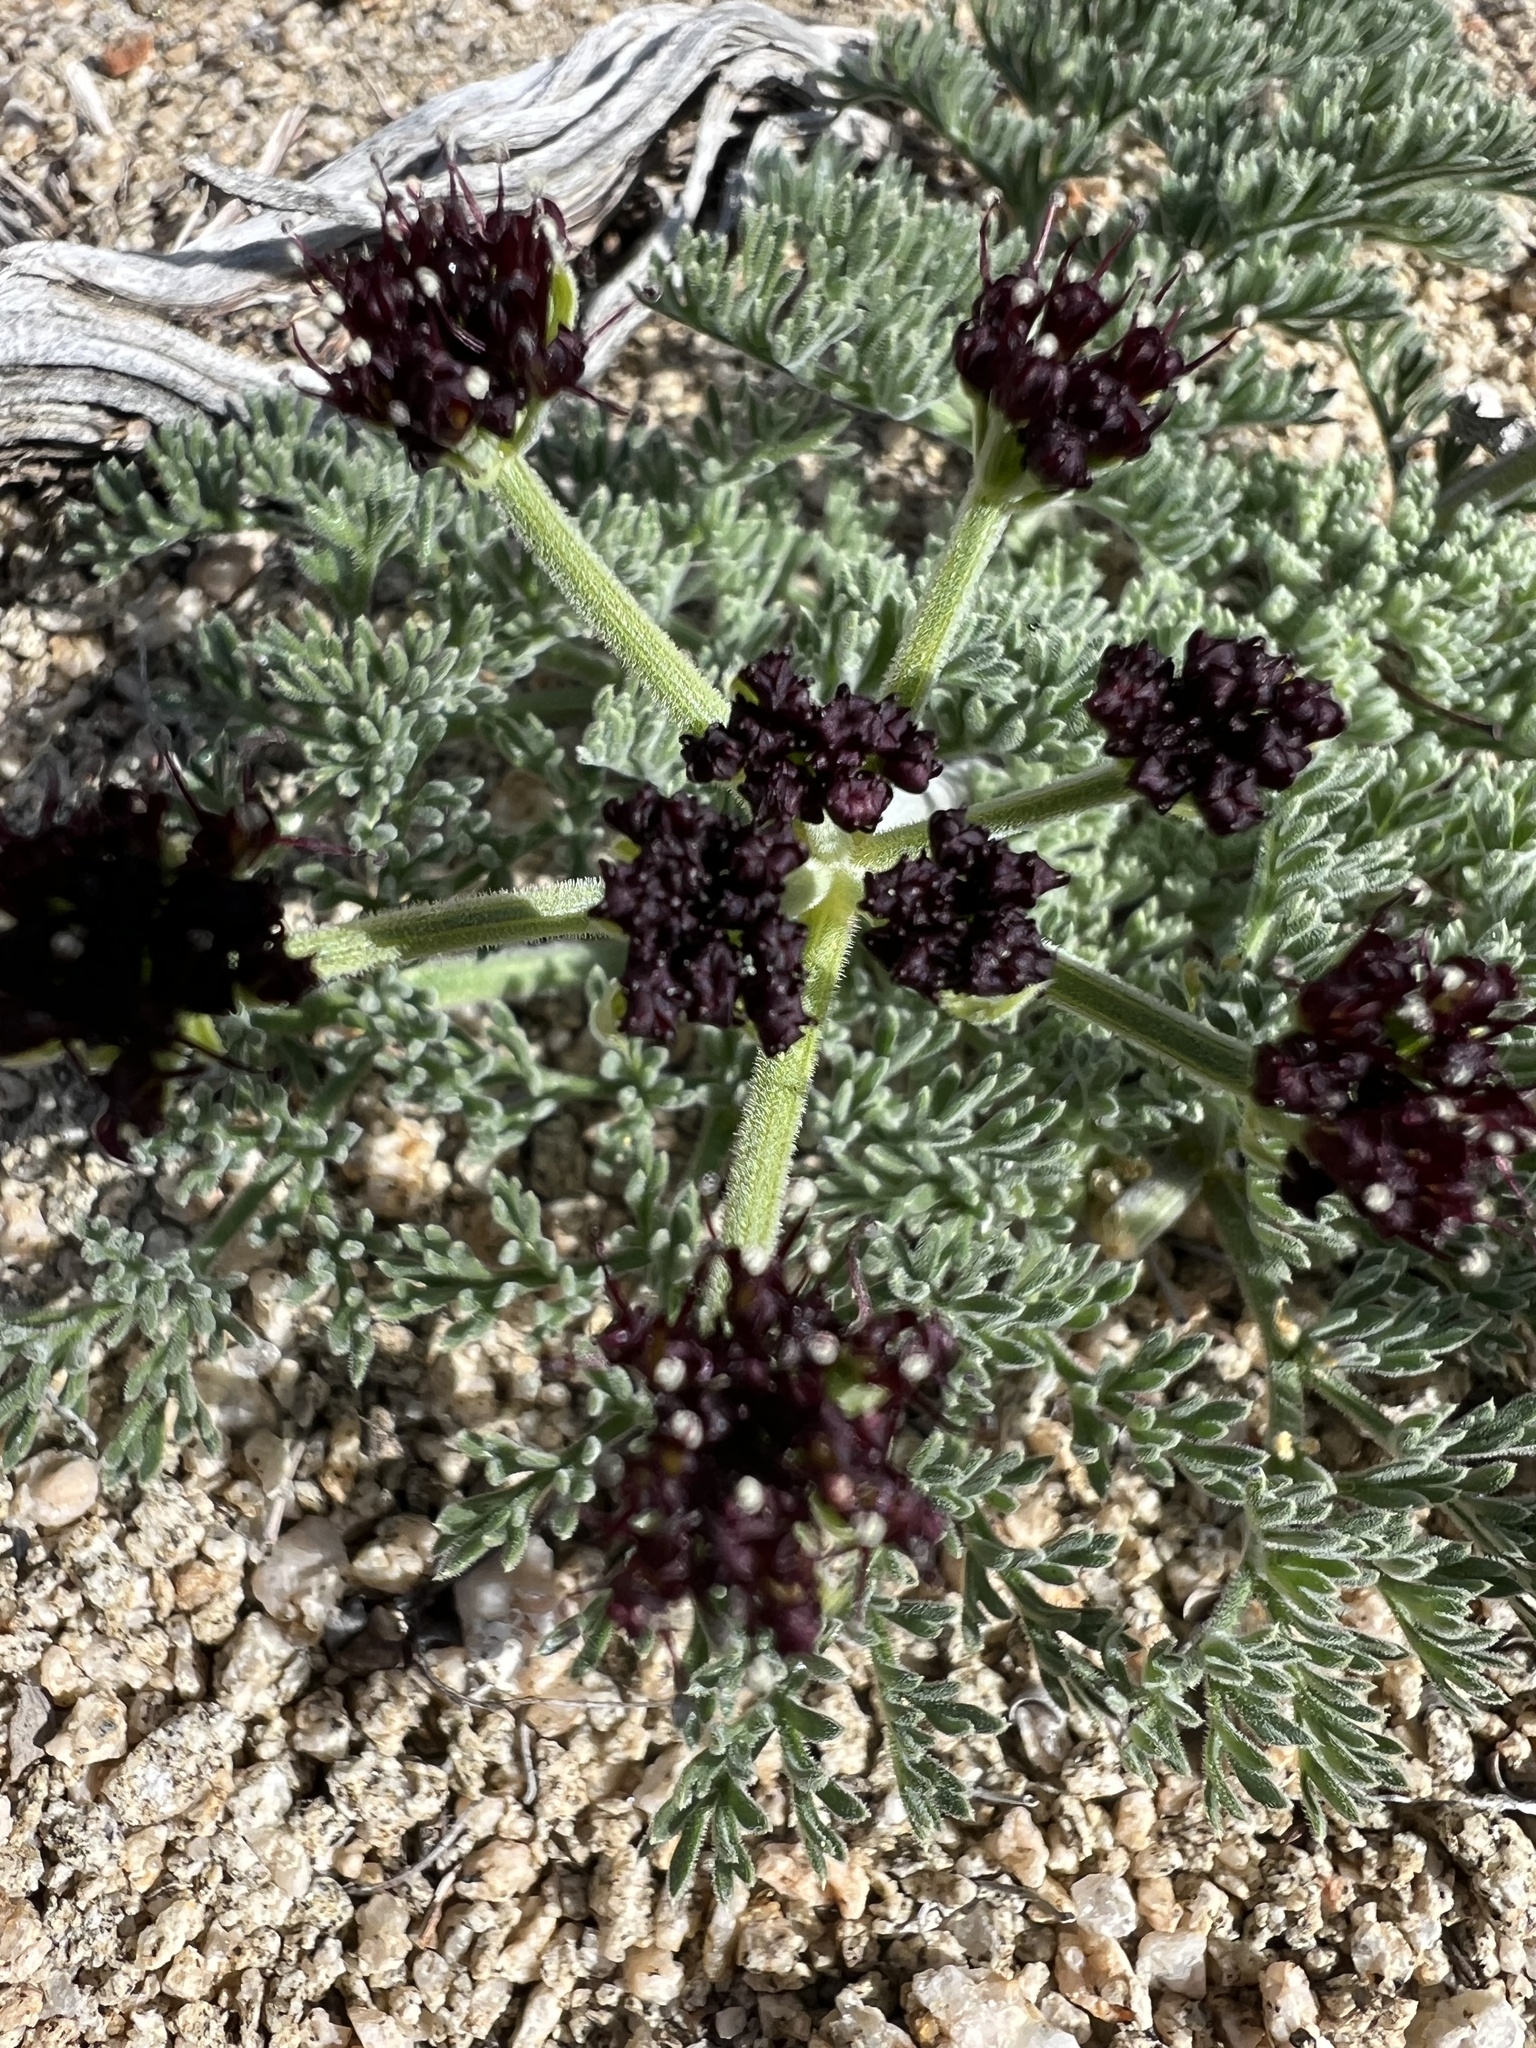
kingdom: Plantae
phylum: Tracheophyta
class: Magnoliopsida
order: Apiales
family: Apiaceae
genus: Lomatium
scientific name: Lomatium mohavense
